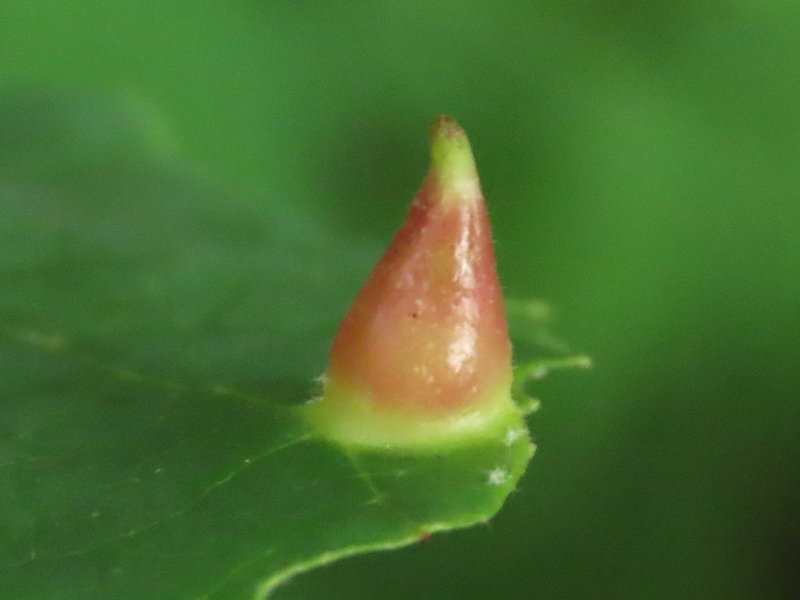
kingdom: Animalia
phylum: Arthropoda
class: Insecta
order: Hemiptera
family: Aphididae
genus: Hormaphis
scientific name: Hormaphis hamamelidis
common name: Witch-hazel cone gall aphid
